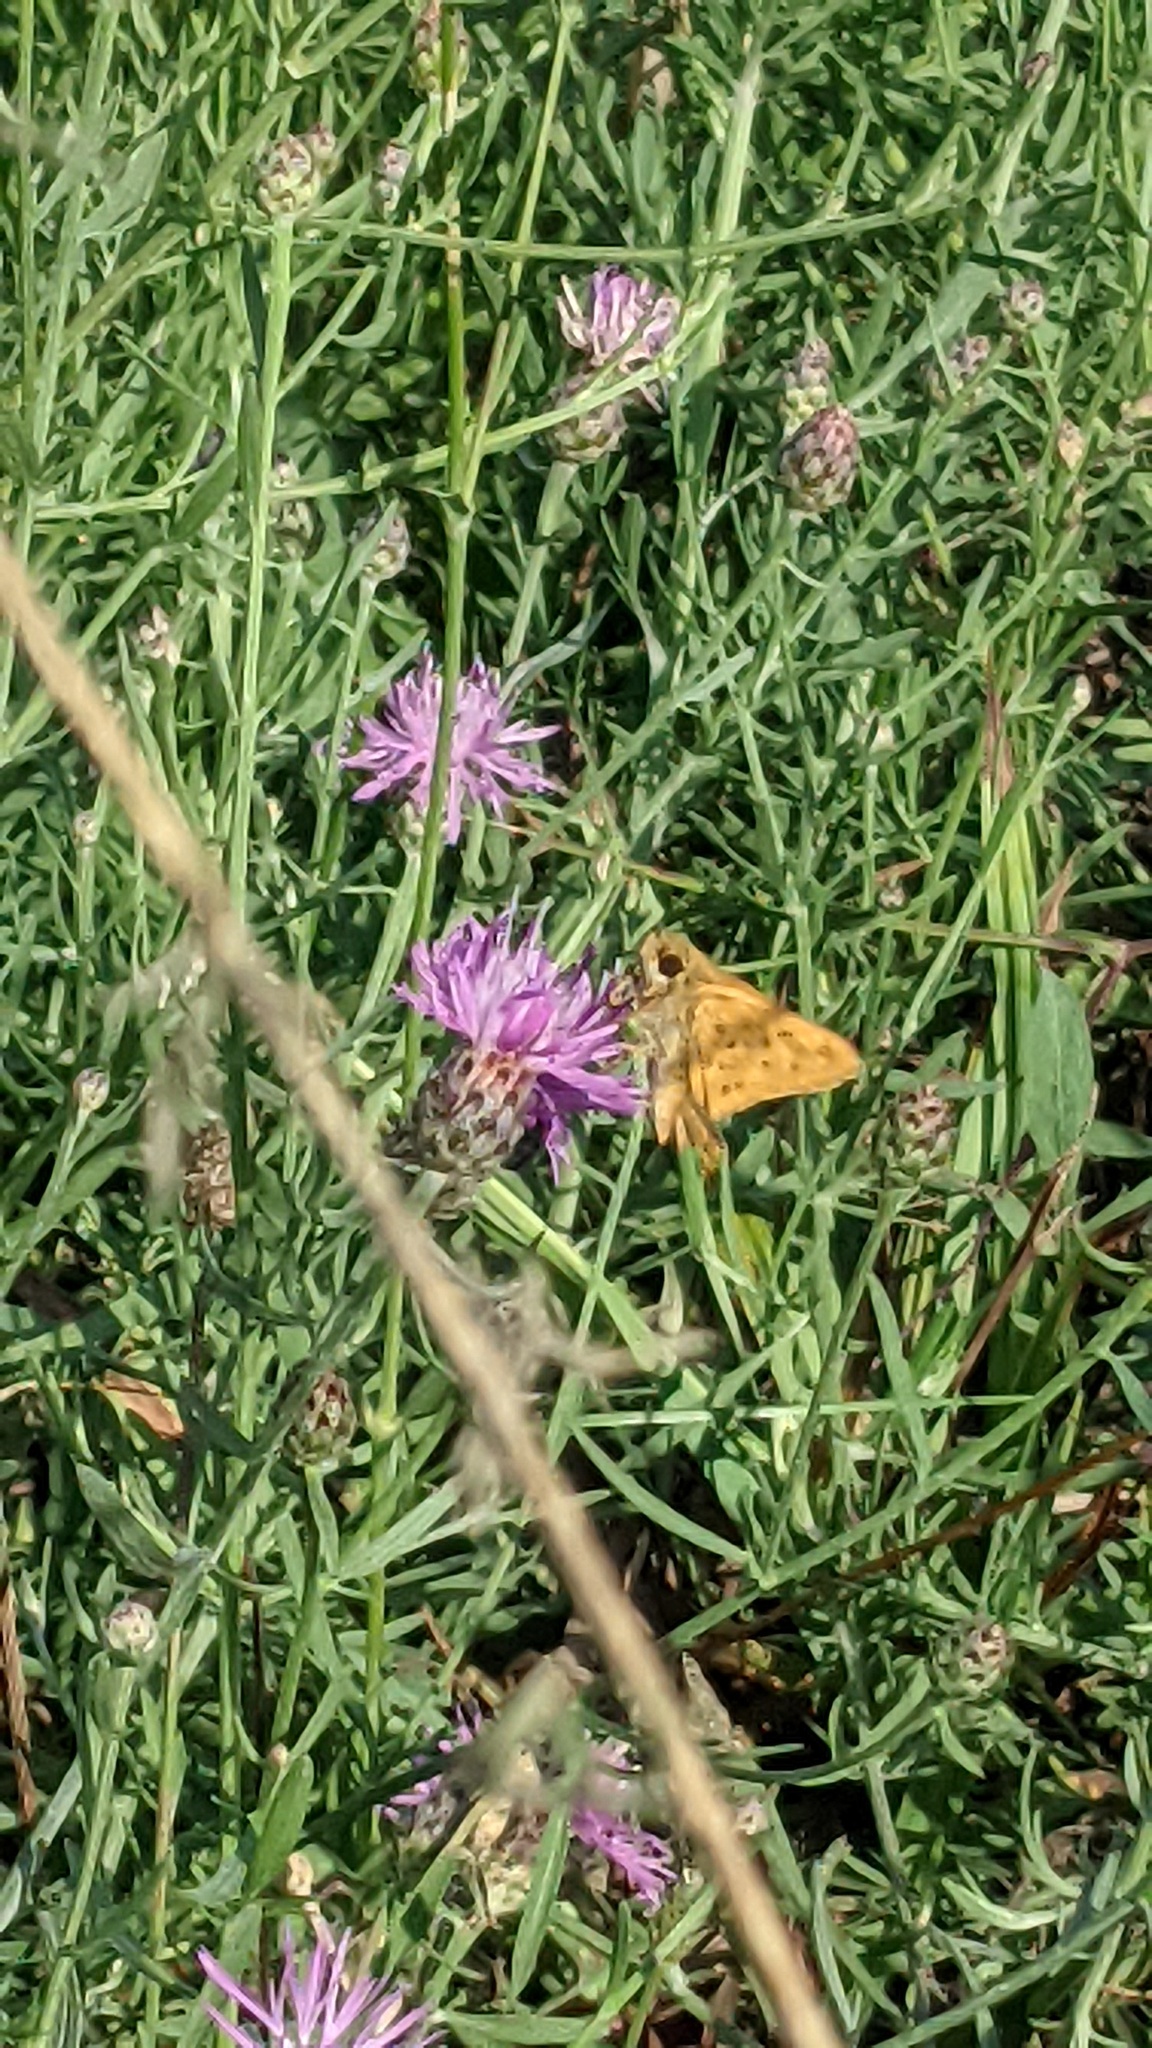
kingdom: Animalia
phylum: Arthropoda
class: Insecta
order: Lepidoptera
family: Hesperiidae
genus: Hylephila
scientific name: Hylephila phyleus
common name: Fiery skipper
